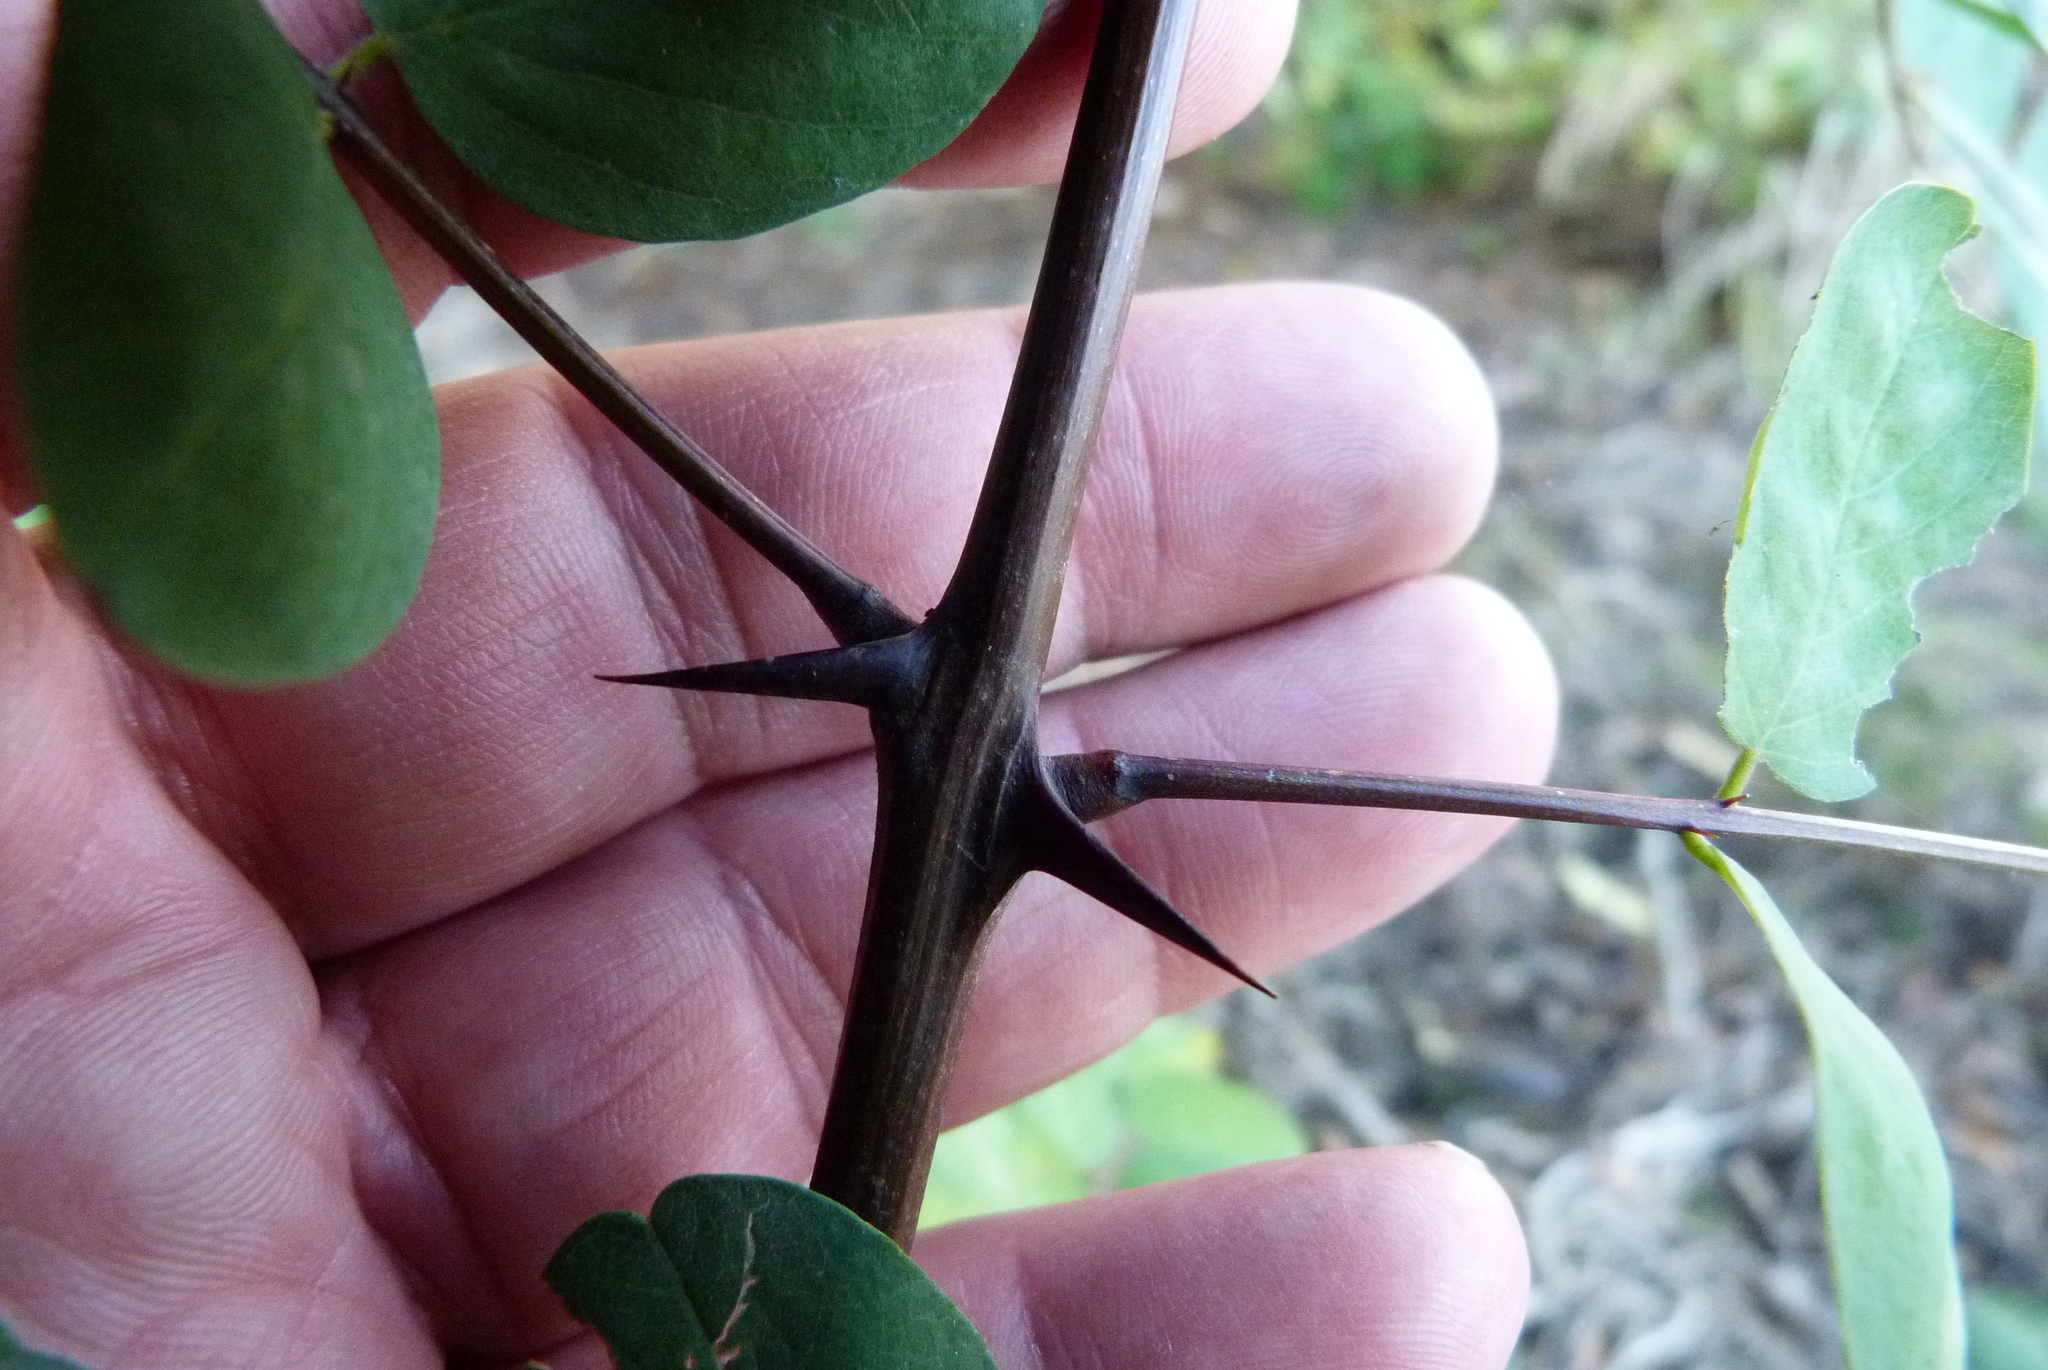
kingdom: Plantae
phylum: Tracheophyta
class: Magnoliopsida
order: Fabales
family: Fabaceae
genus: Robinia
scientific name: Robinia pseudoacacia
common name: Black locust
